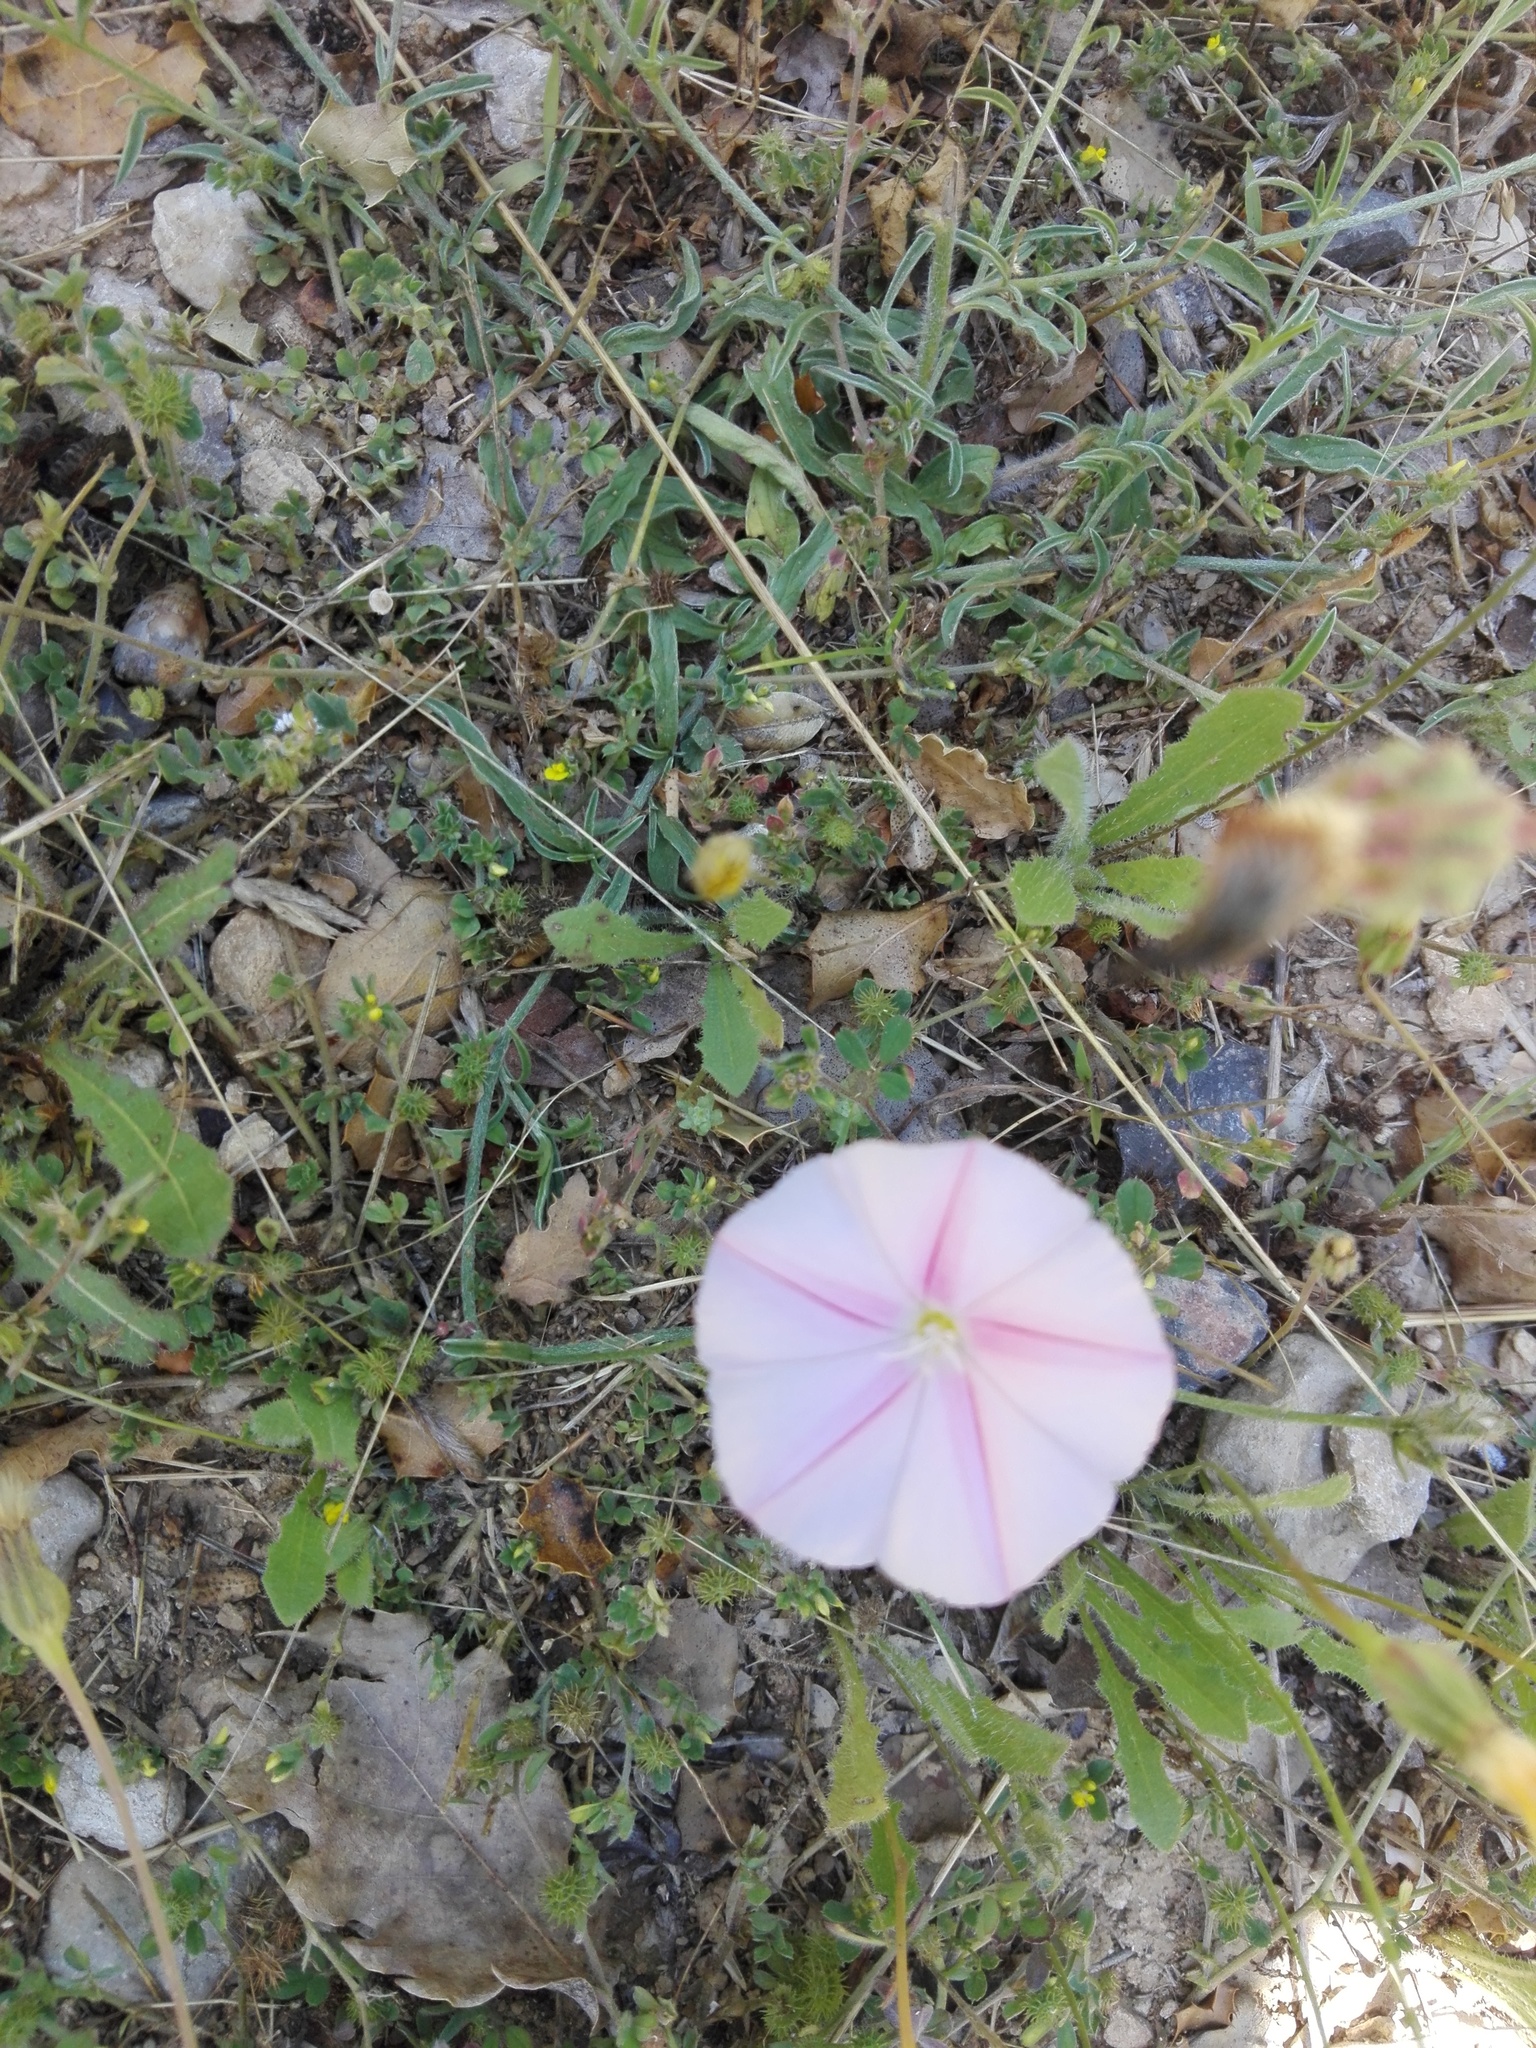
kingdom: Plantae
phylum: Tracheophyta
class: Magnoliopsida
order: Solanales
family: Convolvulaceae
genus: Convolvulus
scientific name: Convolvulus cantabrica
